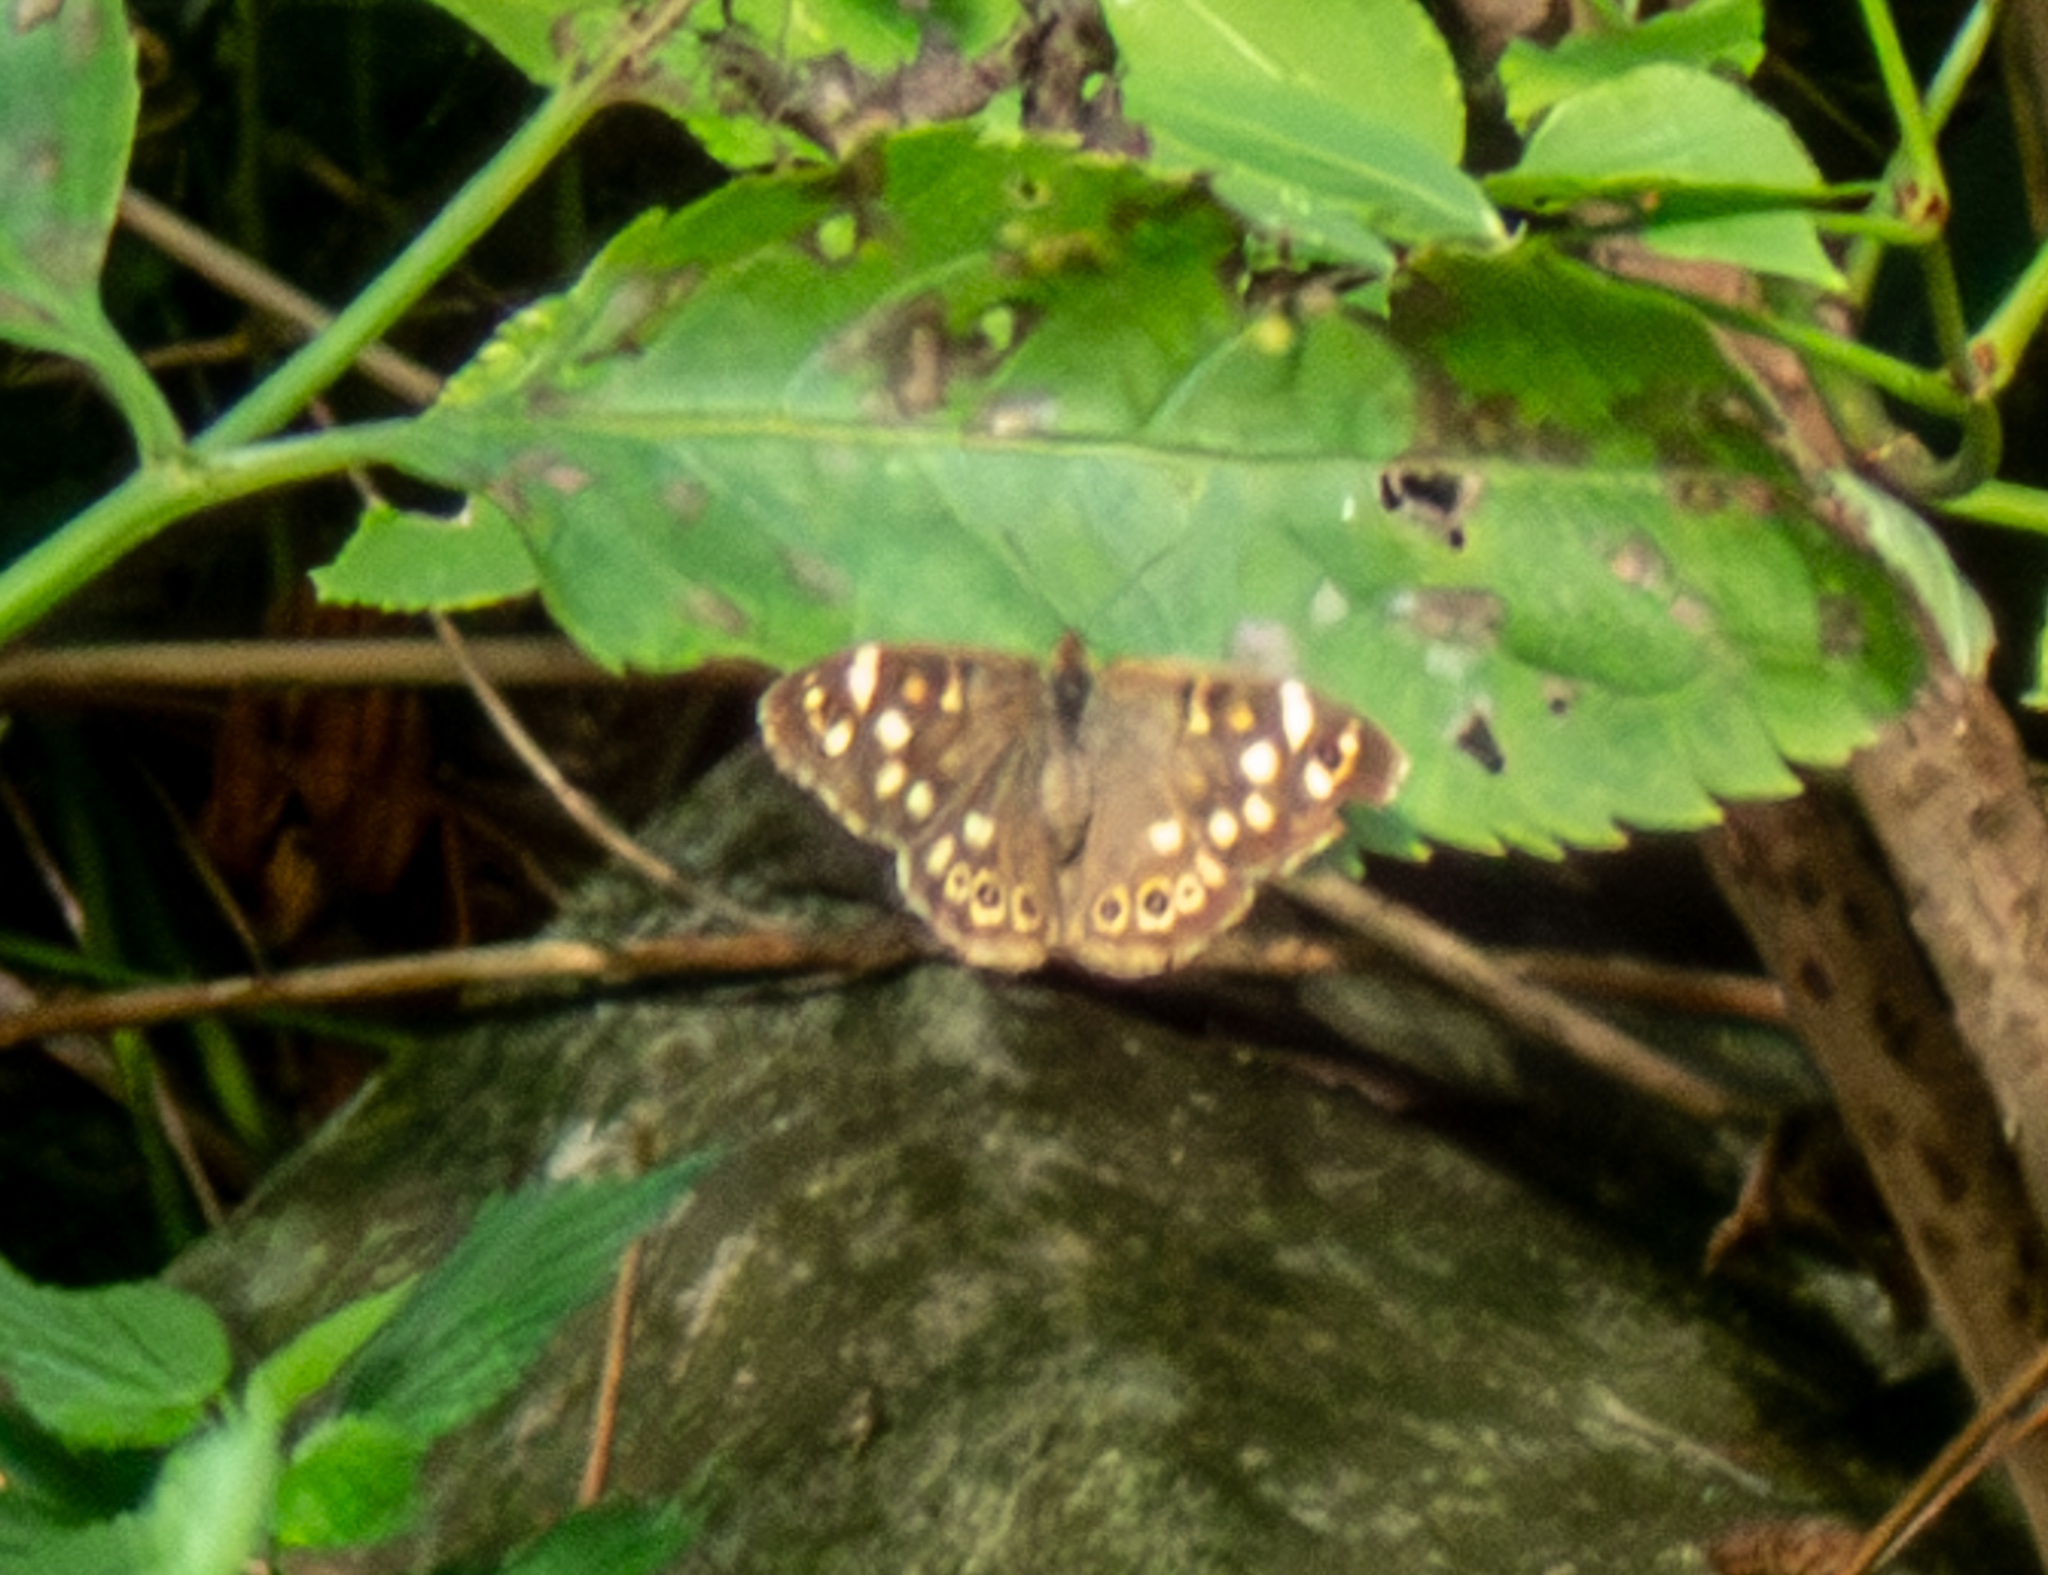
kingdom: Animalia
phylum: Arthropoda
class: Insecta
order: Lepidoptera
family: Nymphalidae
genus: Pararge
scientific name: Pararge aegeria
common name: Speckled wood
